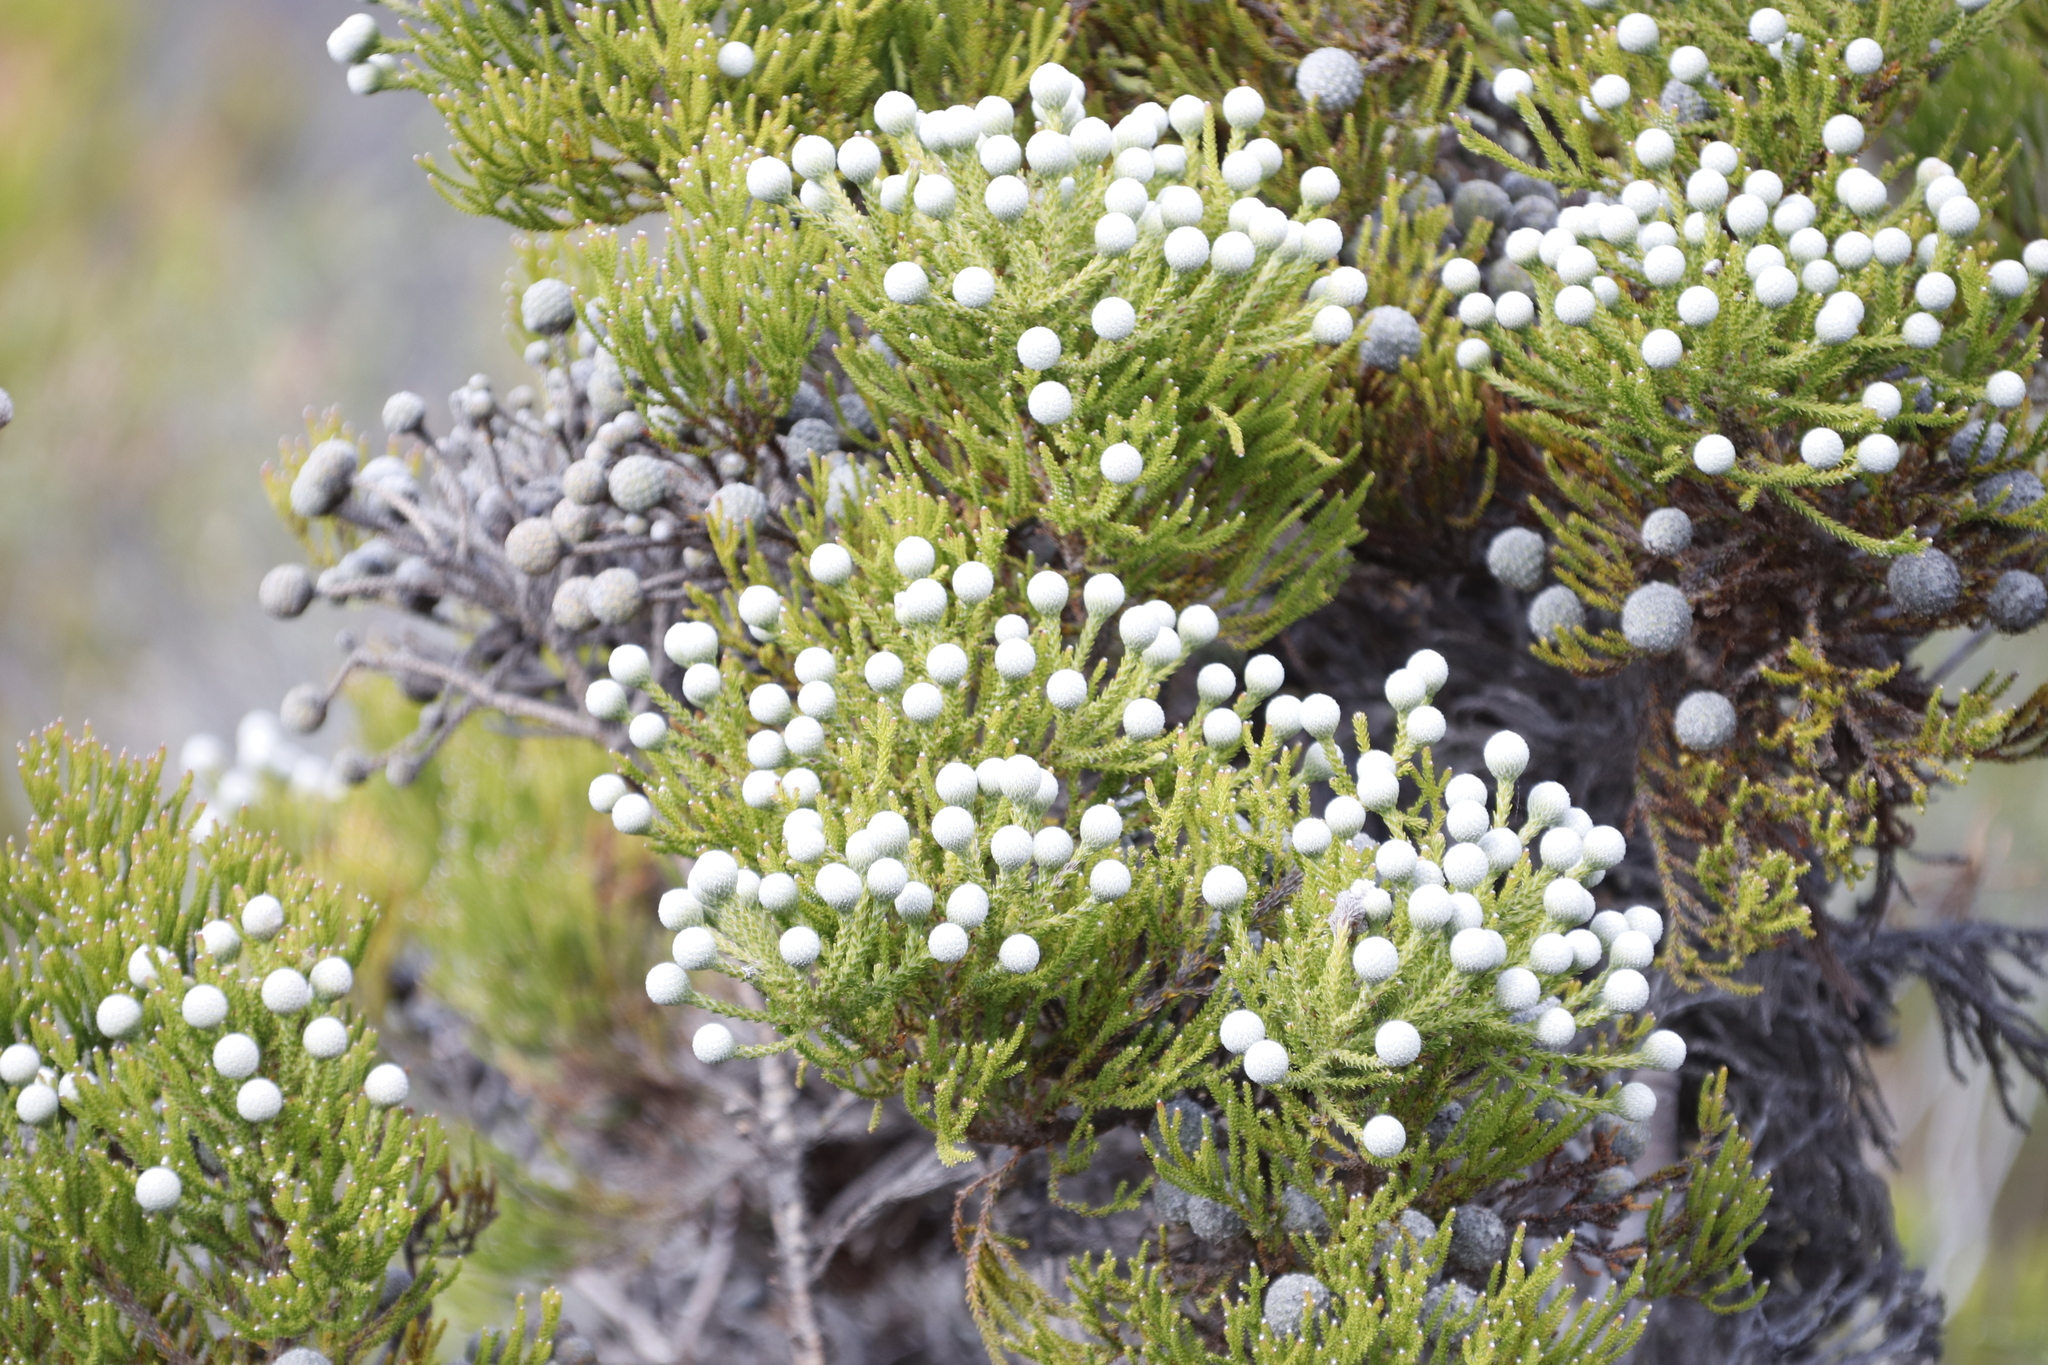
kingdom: Plantae
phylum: Tracheophyta
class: Magnoliopsida
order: Bruniales
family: Bruniaceae
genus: Brunia
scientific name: Brunia noduliflora
